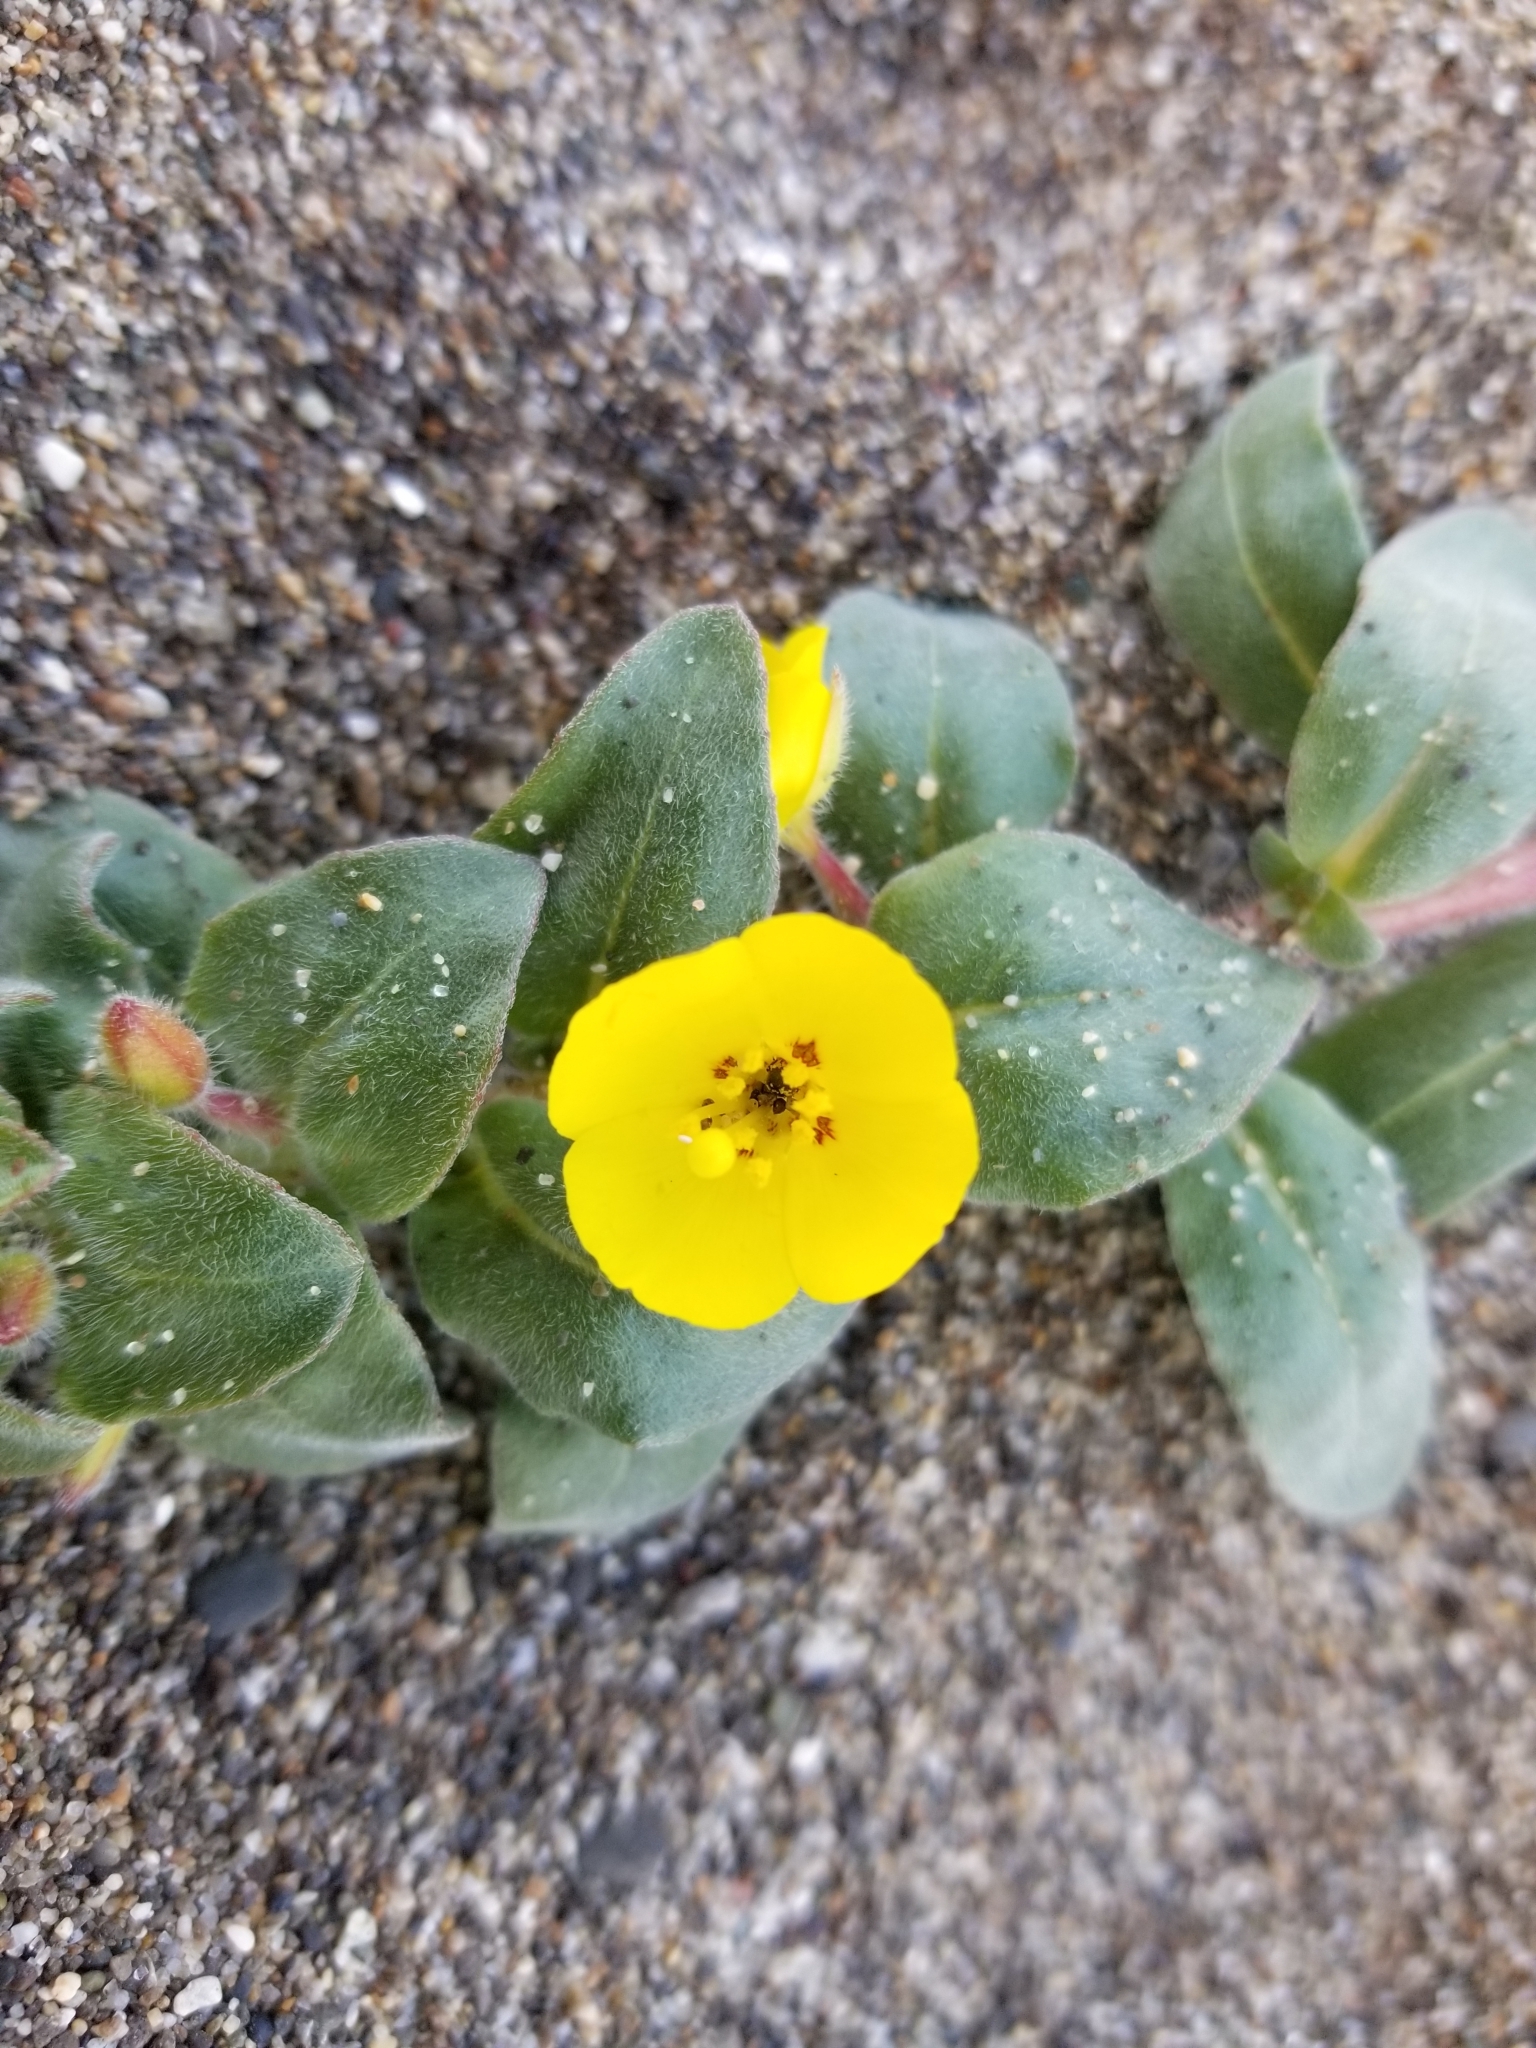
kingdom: Plantae
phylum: Tracheophyta
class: Magnoliopsida
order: Myrtales
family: Onagraceae
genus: Camissoniopsis
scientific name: Camissoniopsis cheiranthifolia
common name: Beach suncup
